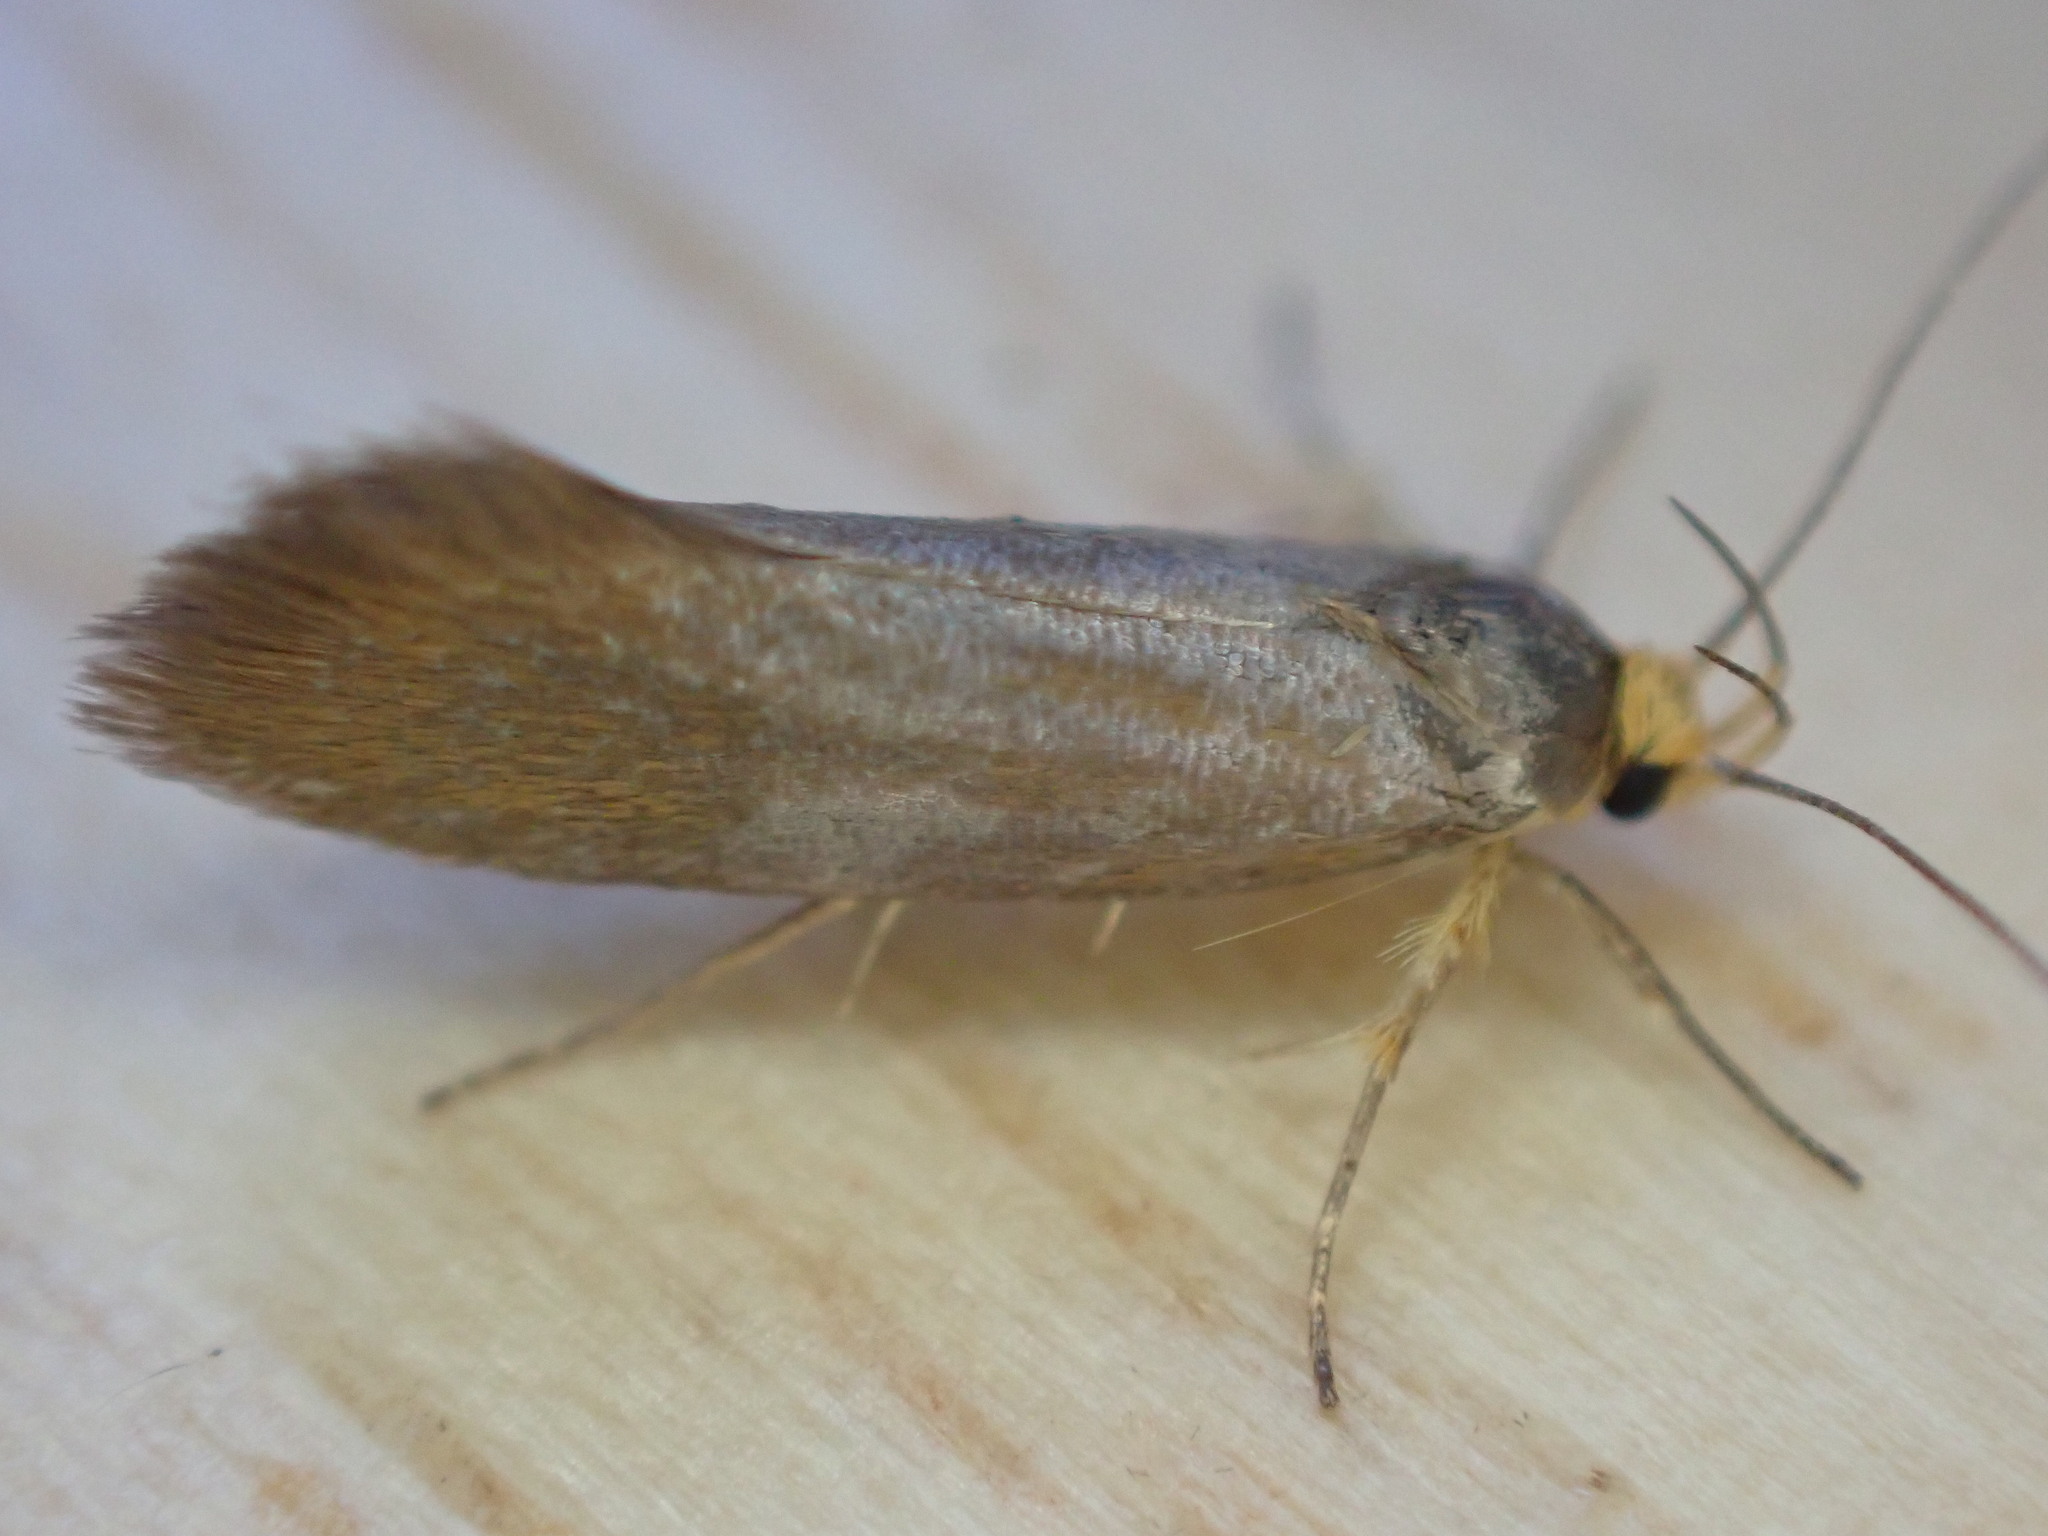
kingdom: Animalia
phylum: Arthropoda
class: Insecta
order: Lepidoptera
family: Oecophoridae
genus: Borkhausenia
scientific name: Borkhausenia Crassa unitella
